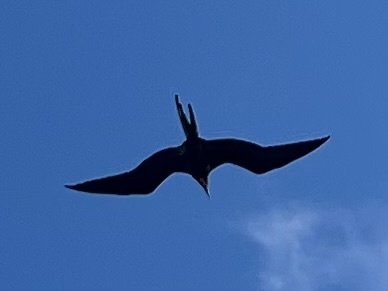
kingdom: Animalia
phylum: Chordata
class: Aves
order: Suliformes
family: Fregatidae
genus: Fregata
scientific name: Fregata magnificens
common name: Magnificent frigatebird
